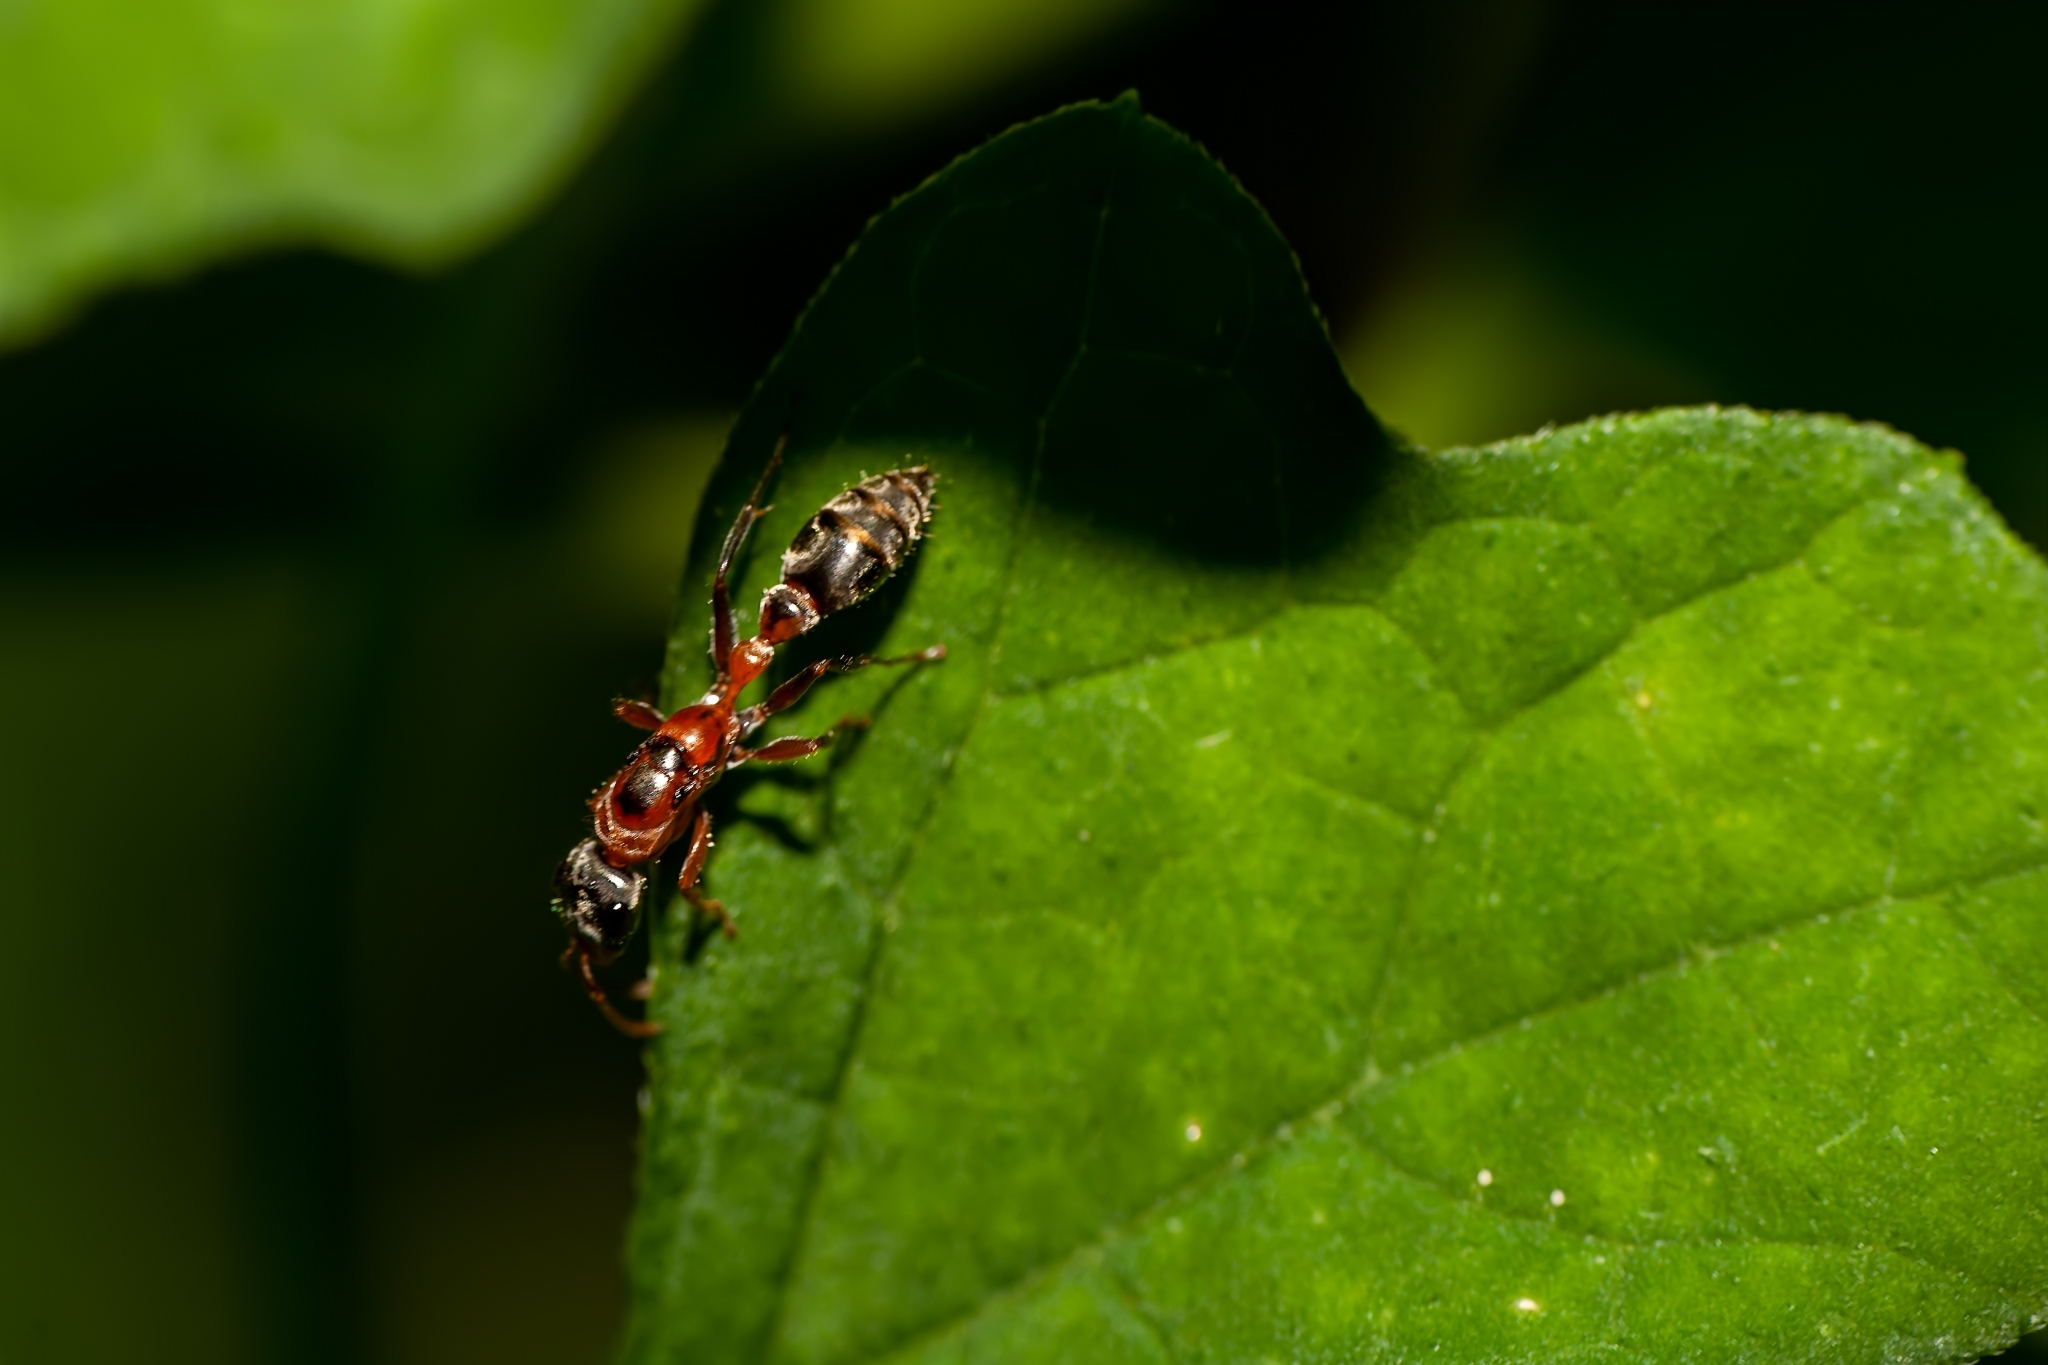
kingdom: Animalia
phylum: Arthropoda
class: Insecta
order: Hymenoptera
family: Formicidae
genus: Pseudomyrmex
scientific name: Pseudomyrmex gracilis
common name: Graceful twig ant
